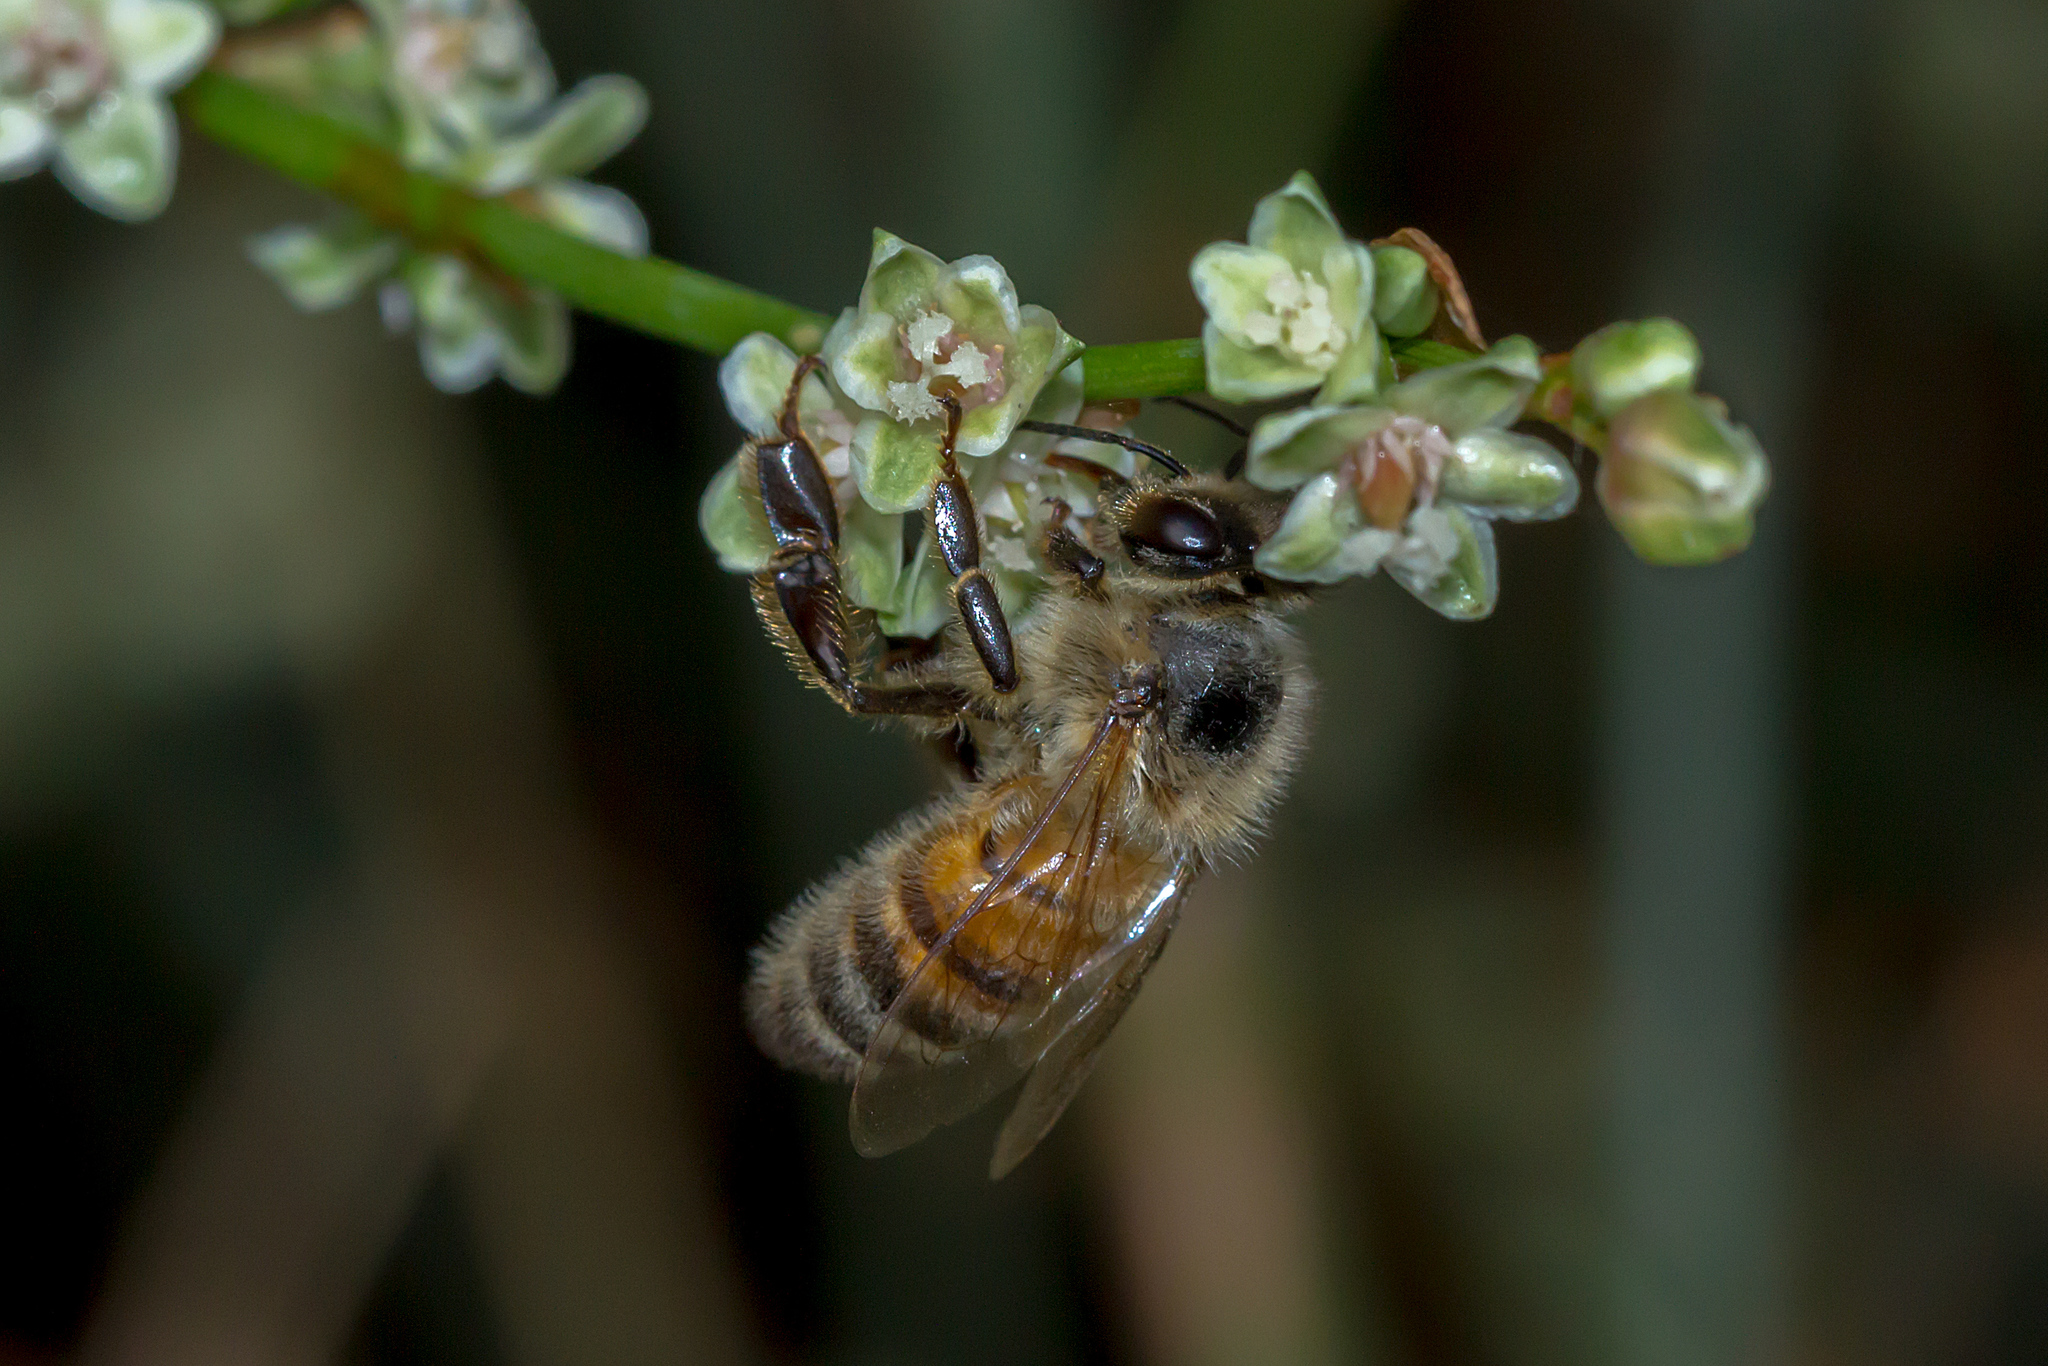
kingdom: Animalia
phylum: Arthropoda
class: Insecta
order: Hymenoptera
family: Apidae
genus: Apis
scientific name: Apis mellifera
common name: Honey bee
